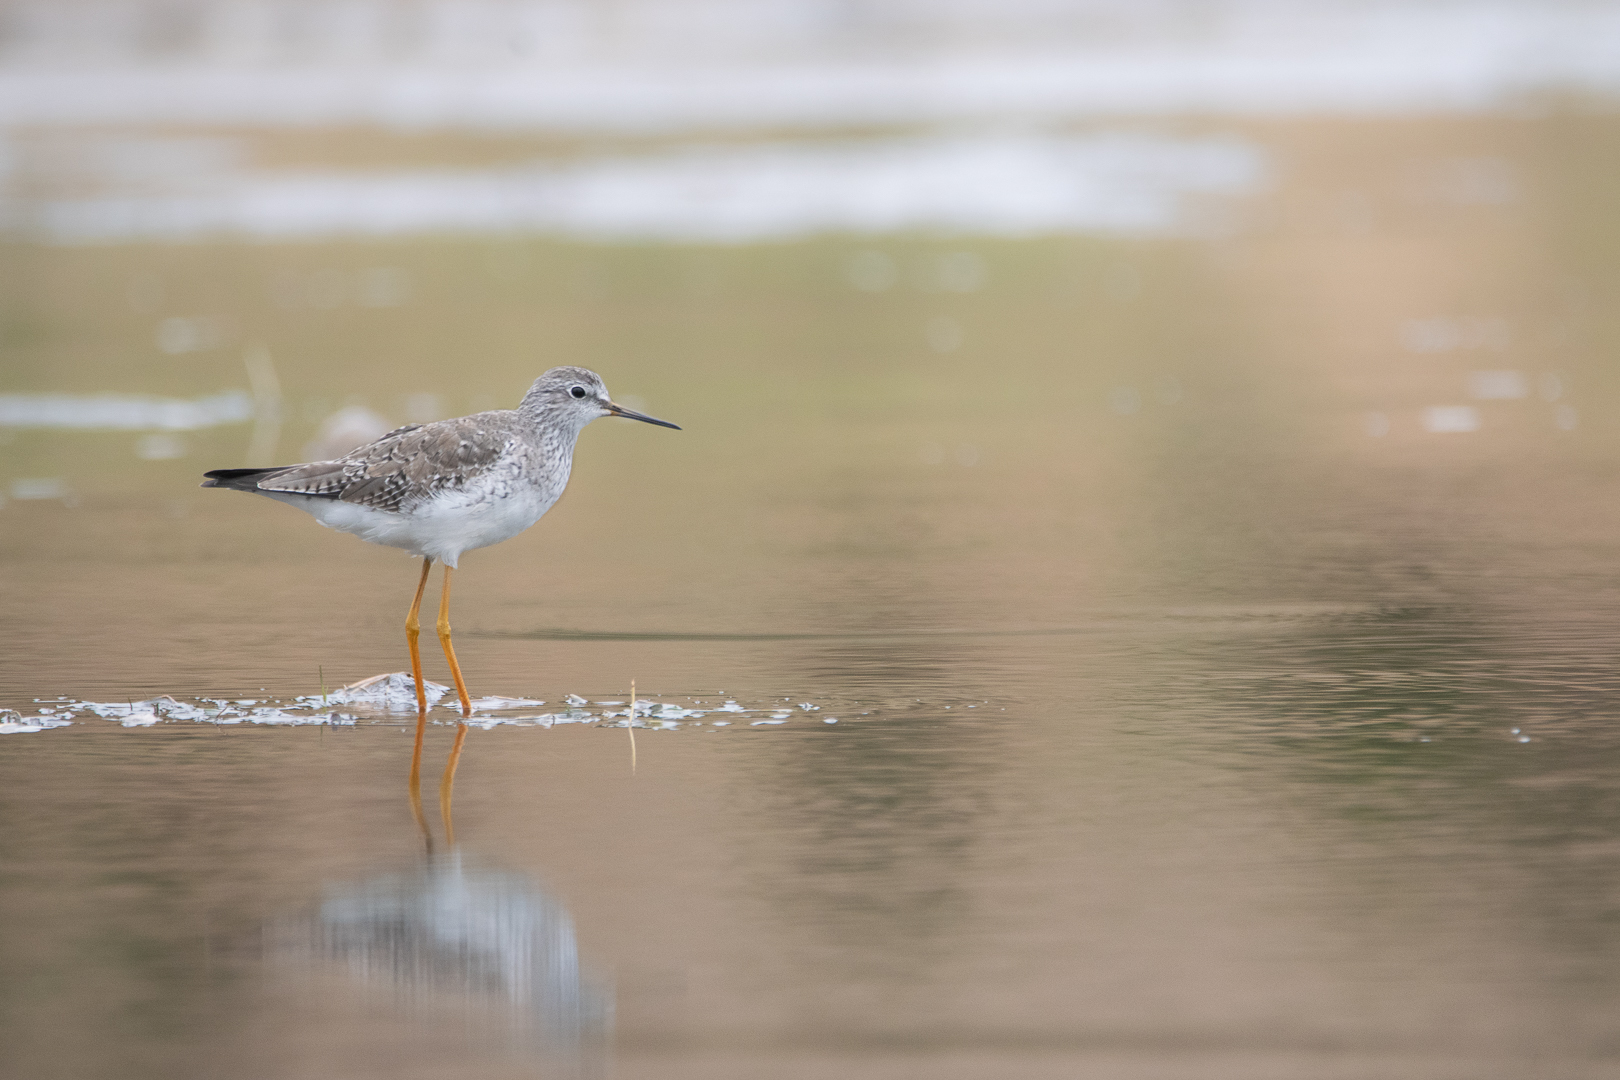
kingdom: Animalia
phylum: Chordata
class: Aves
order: Charadriiformes
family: Scolopacidae
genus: Tringa
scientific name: Tringa flavipes
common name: Lesser yellowlegs
